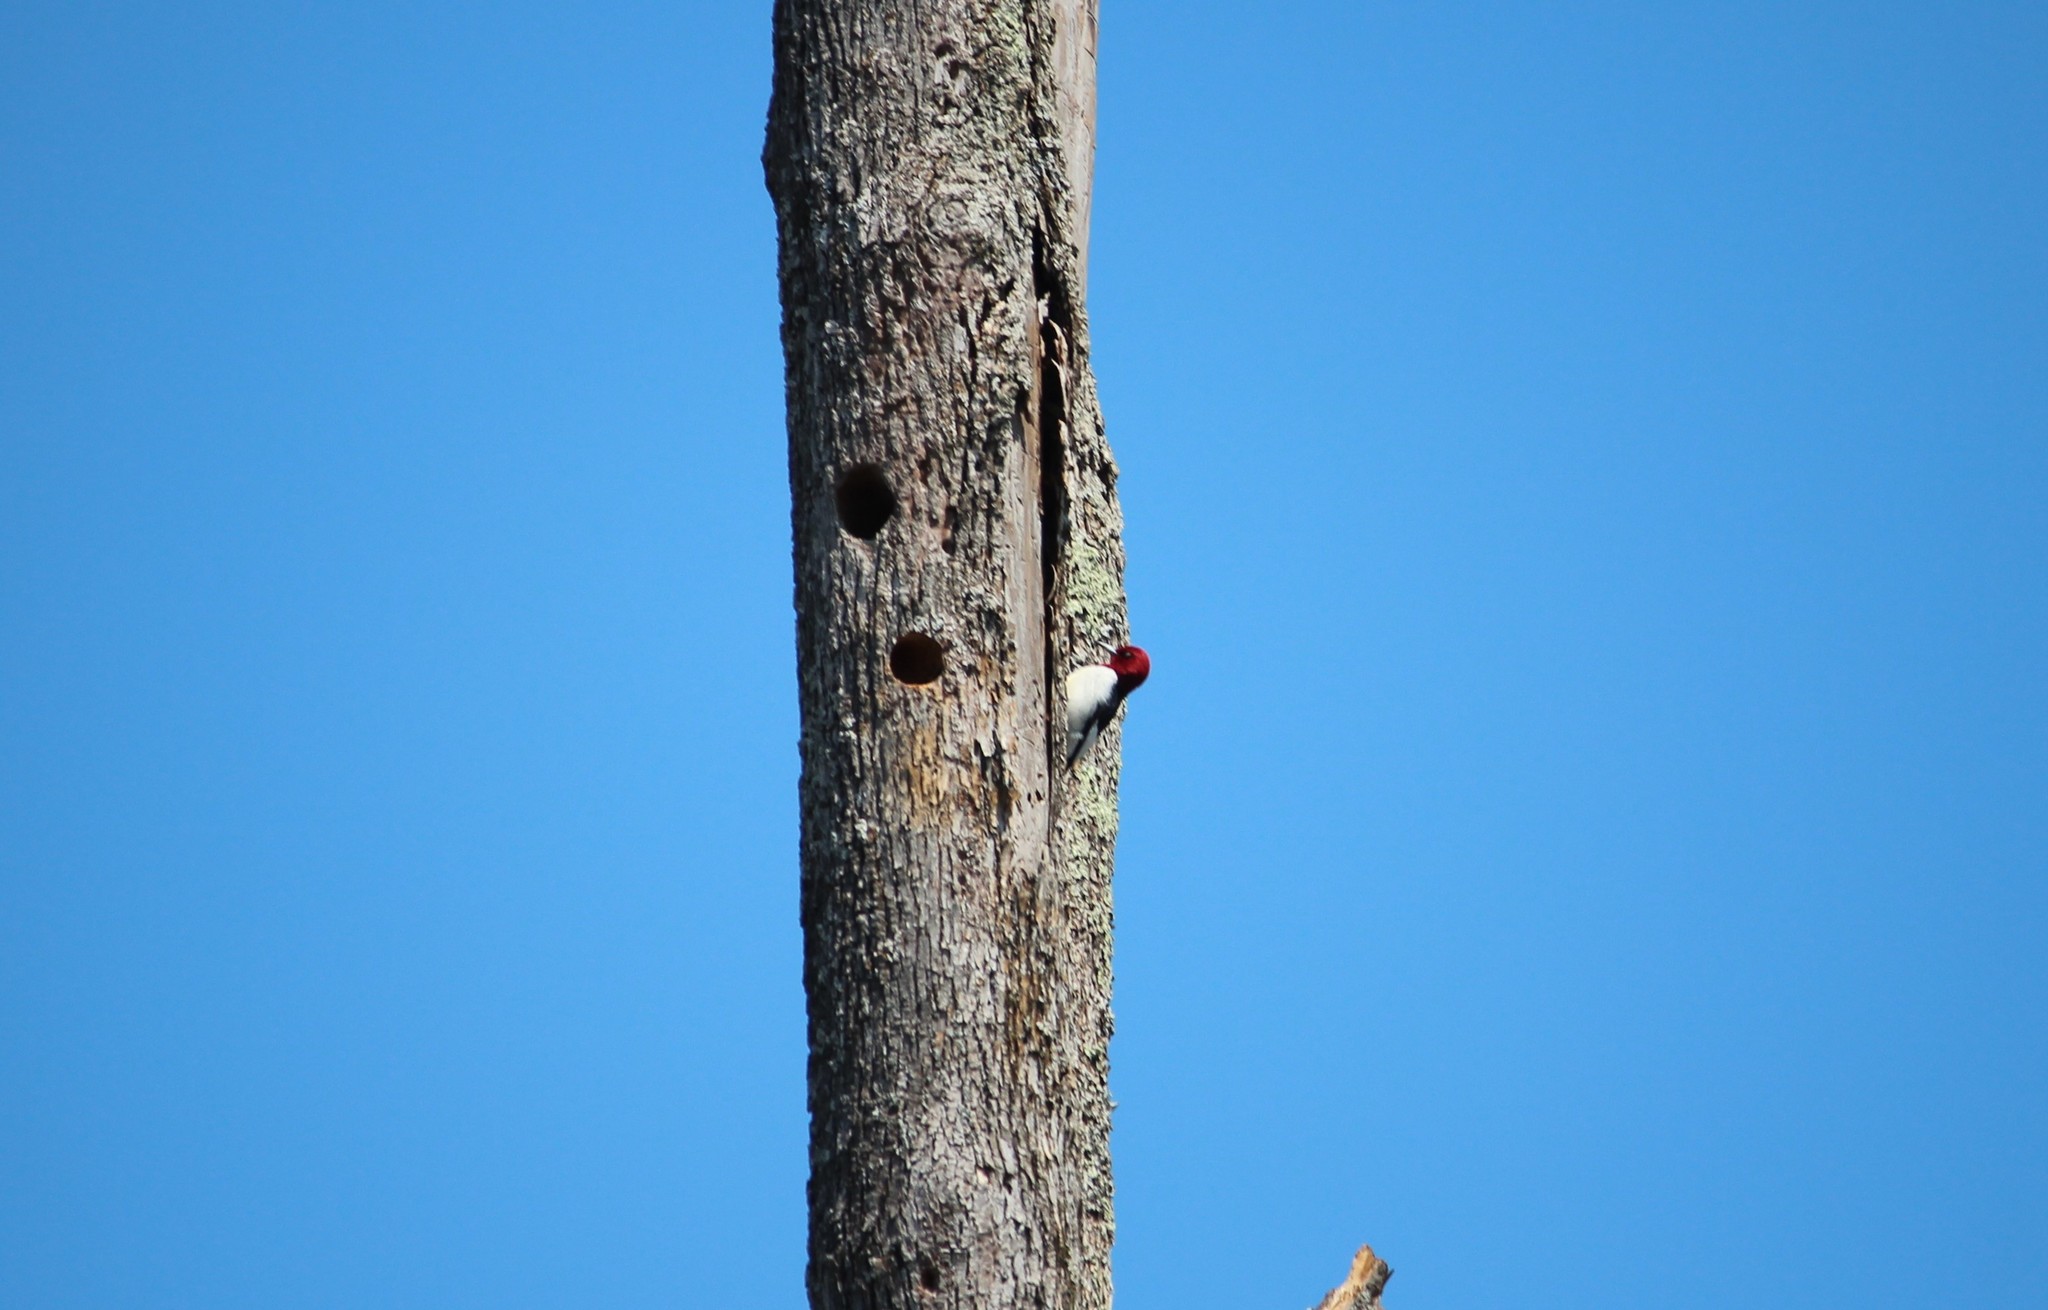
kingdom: Animalia
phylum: Chordata
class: Aves
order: Piciformes
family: Picidae
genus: Melanerpes
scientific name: Melanerpes erythrocephalus
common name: Red-headed woodpecker
